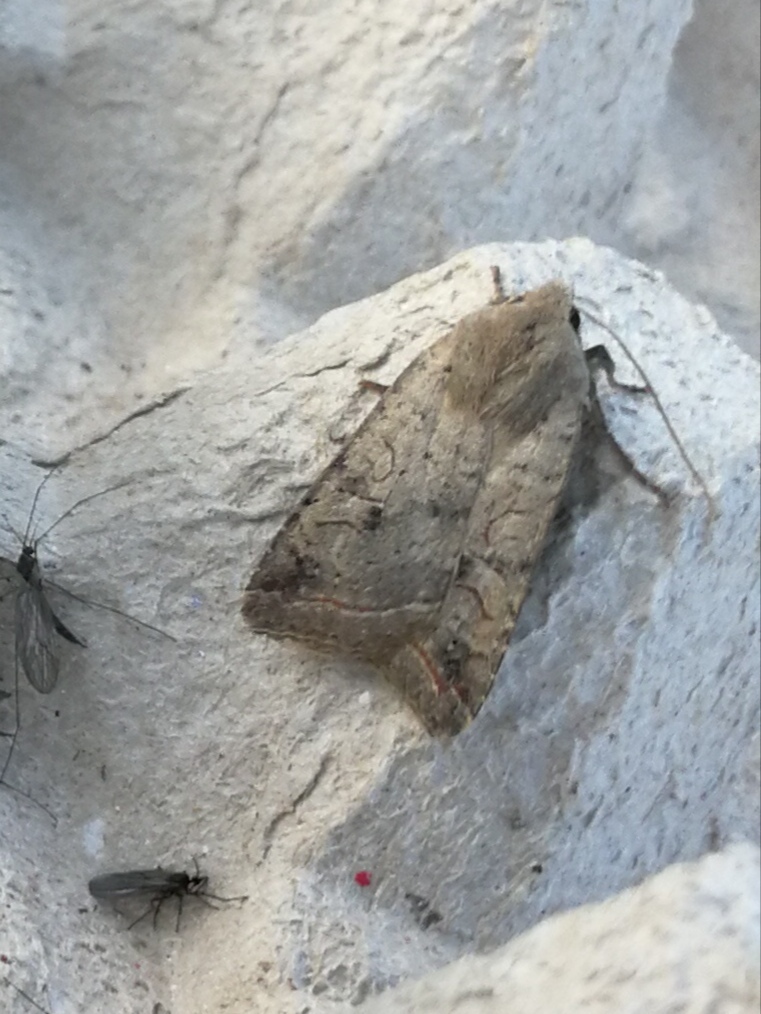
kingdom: Animalia
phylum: Arthropoda
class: Insecta
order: Lepidoptera
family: Noctuidae
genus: Agrochola
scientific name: Agrochola lota
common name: Red-line quaker
